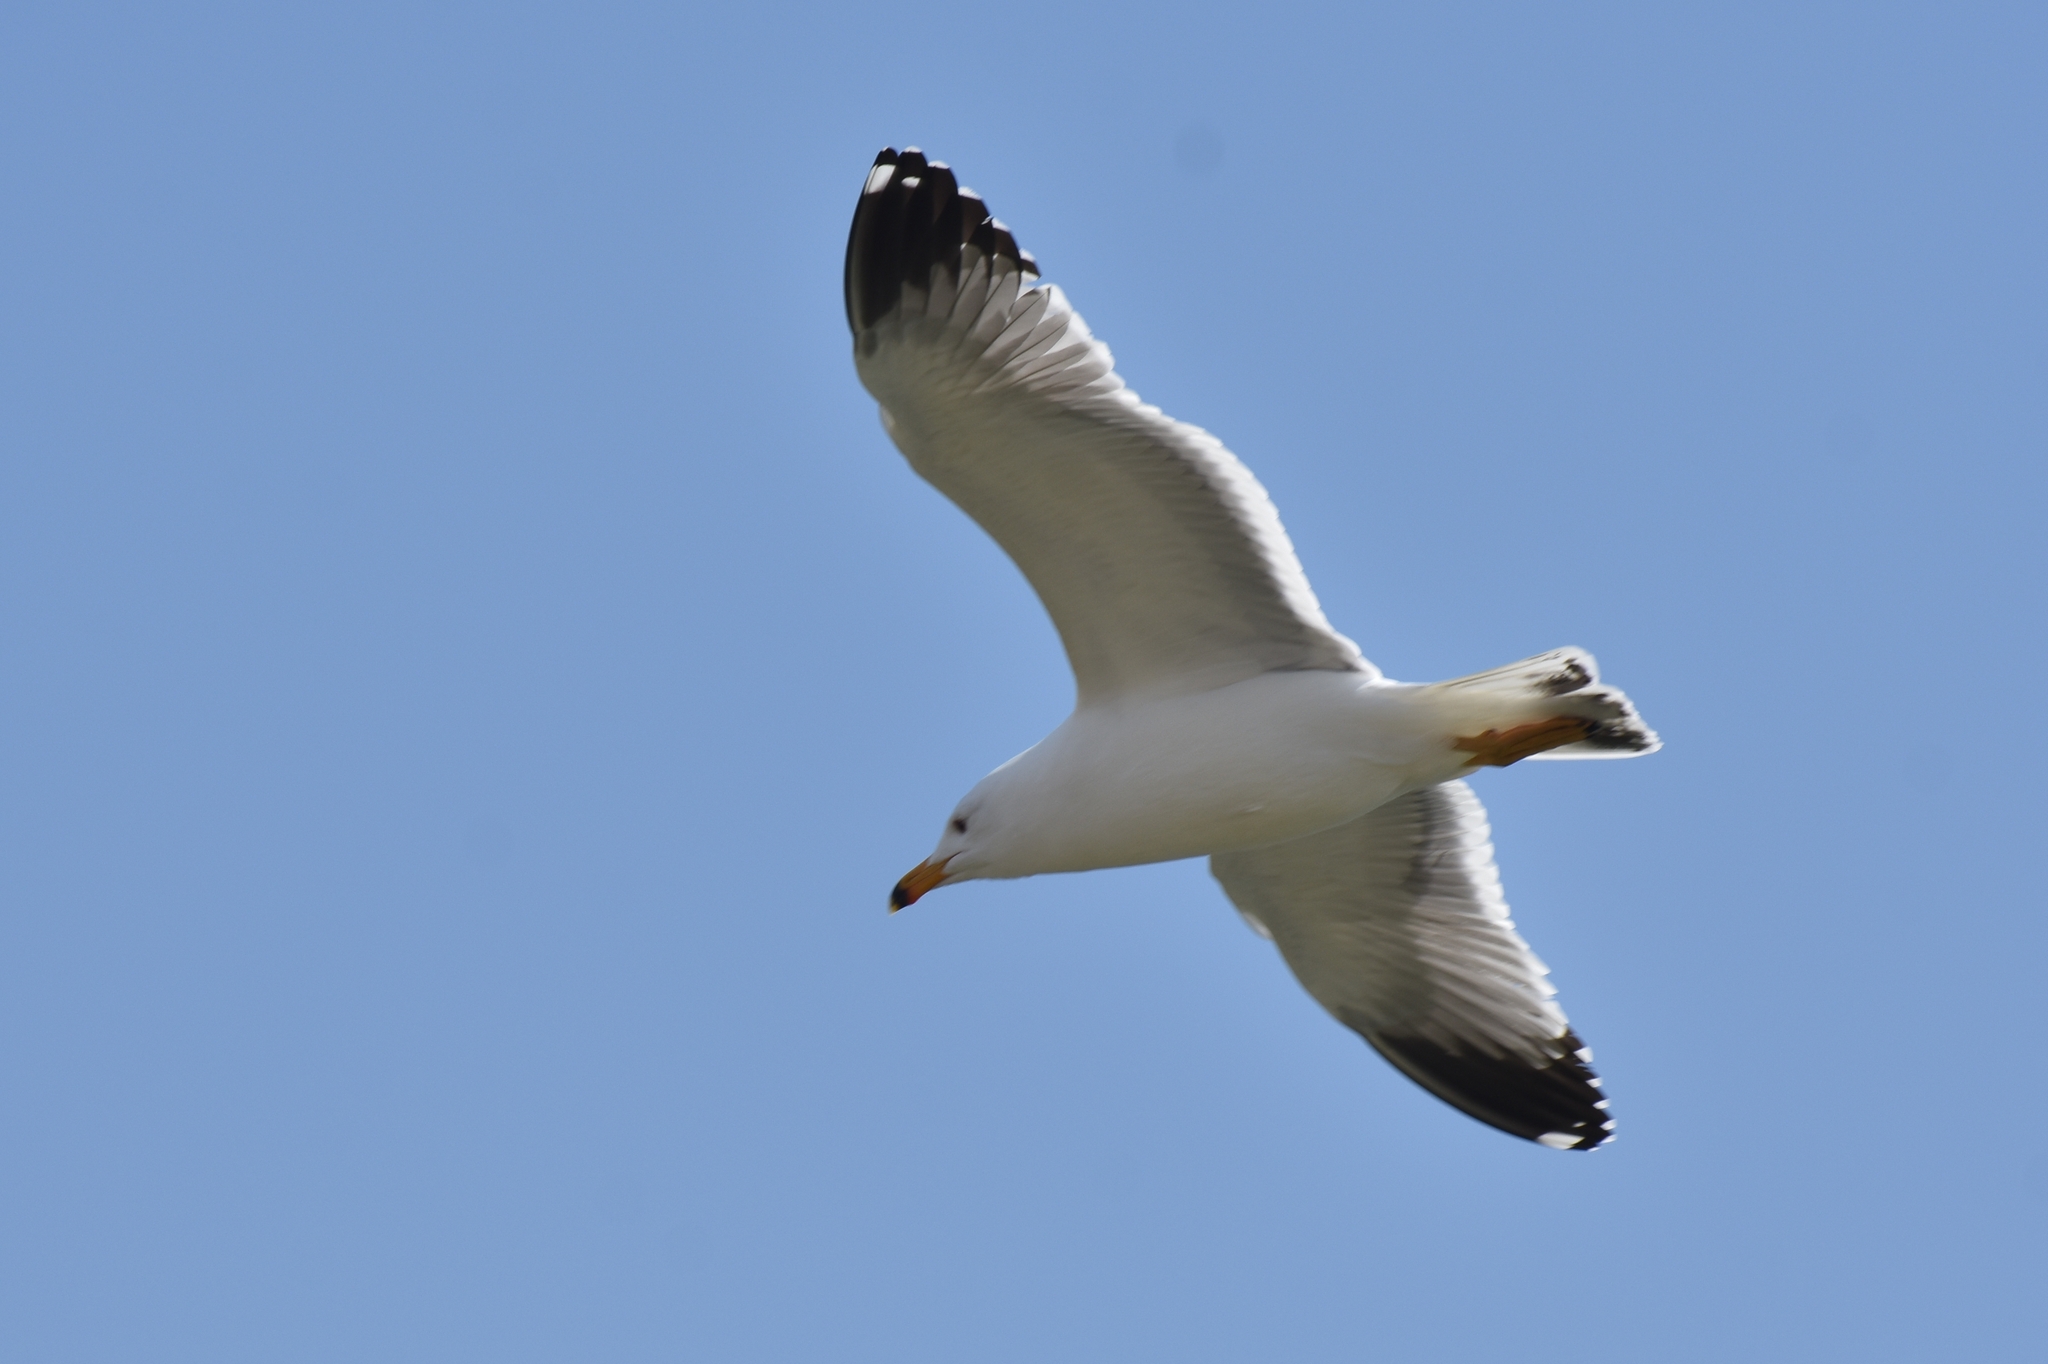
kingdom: Animalia
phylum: Chordata
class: Aves
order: Charadriiformes
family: Laridae
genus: Larus
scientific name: Larus armenicus
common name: Armenian gull
